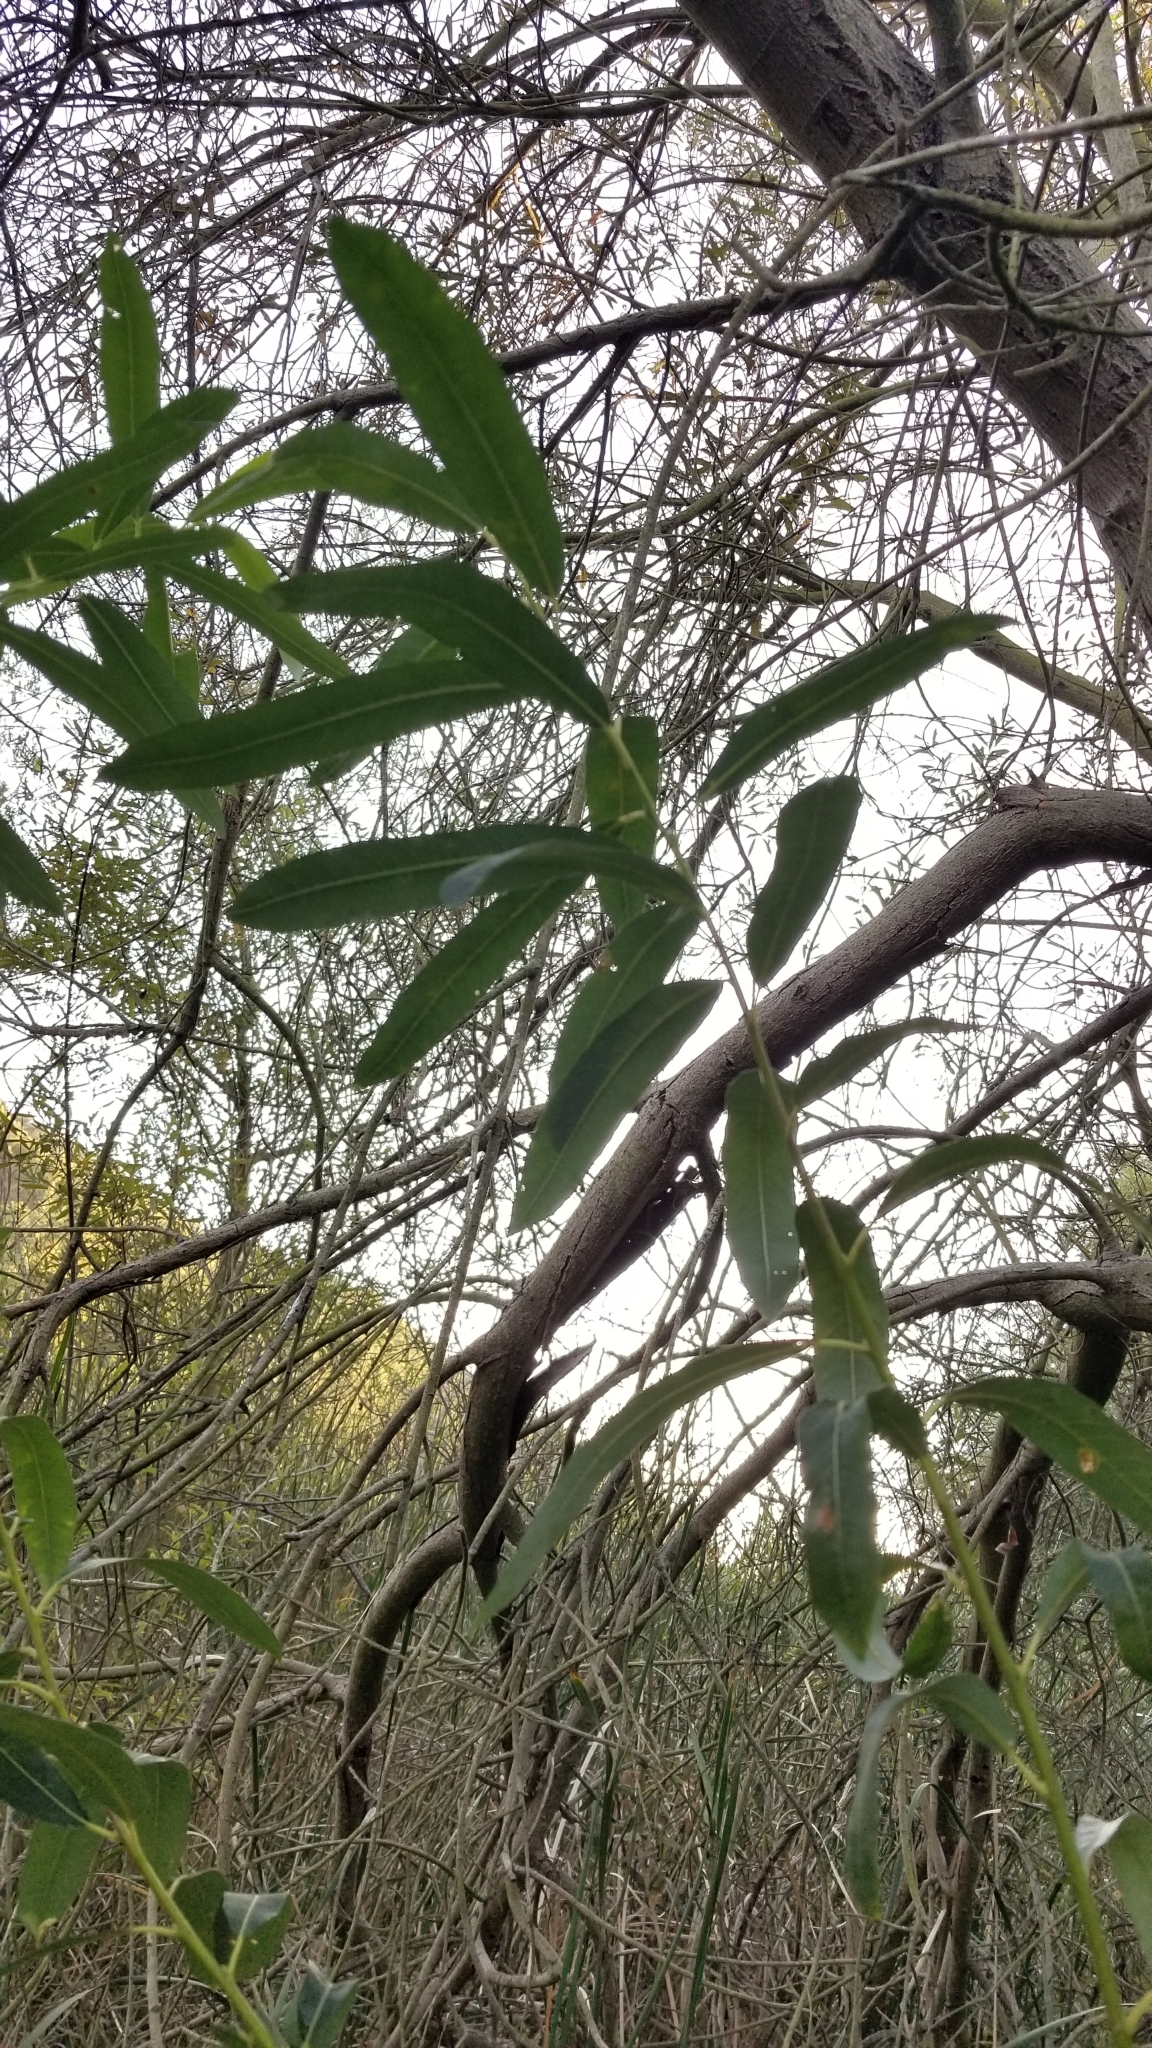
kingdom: Plantae
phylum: Tracheophyta
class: Magnoliopsida
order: Malpighiales
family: Salicaceae
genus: Salix
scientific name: Salix lasiolepis
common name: Arroyo willow
